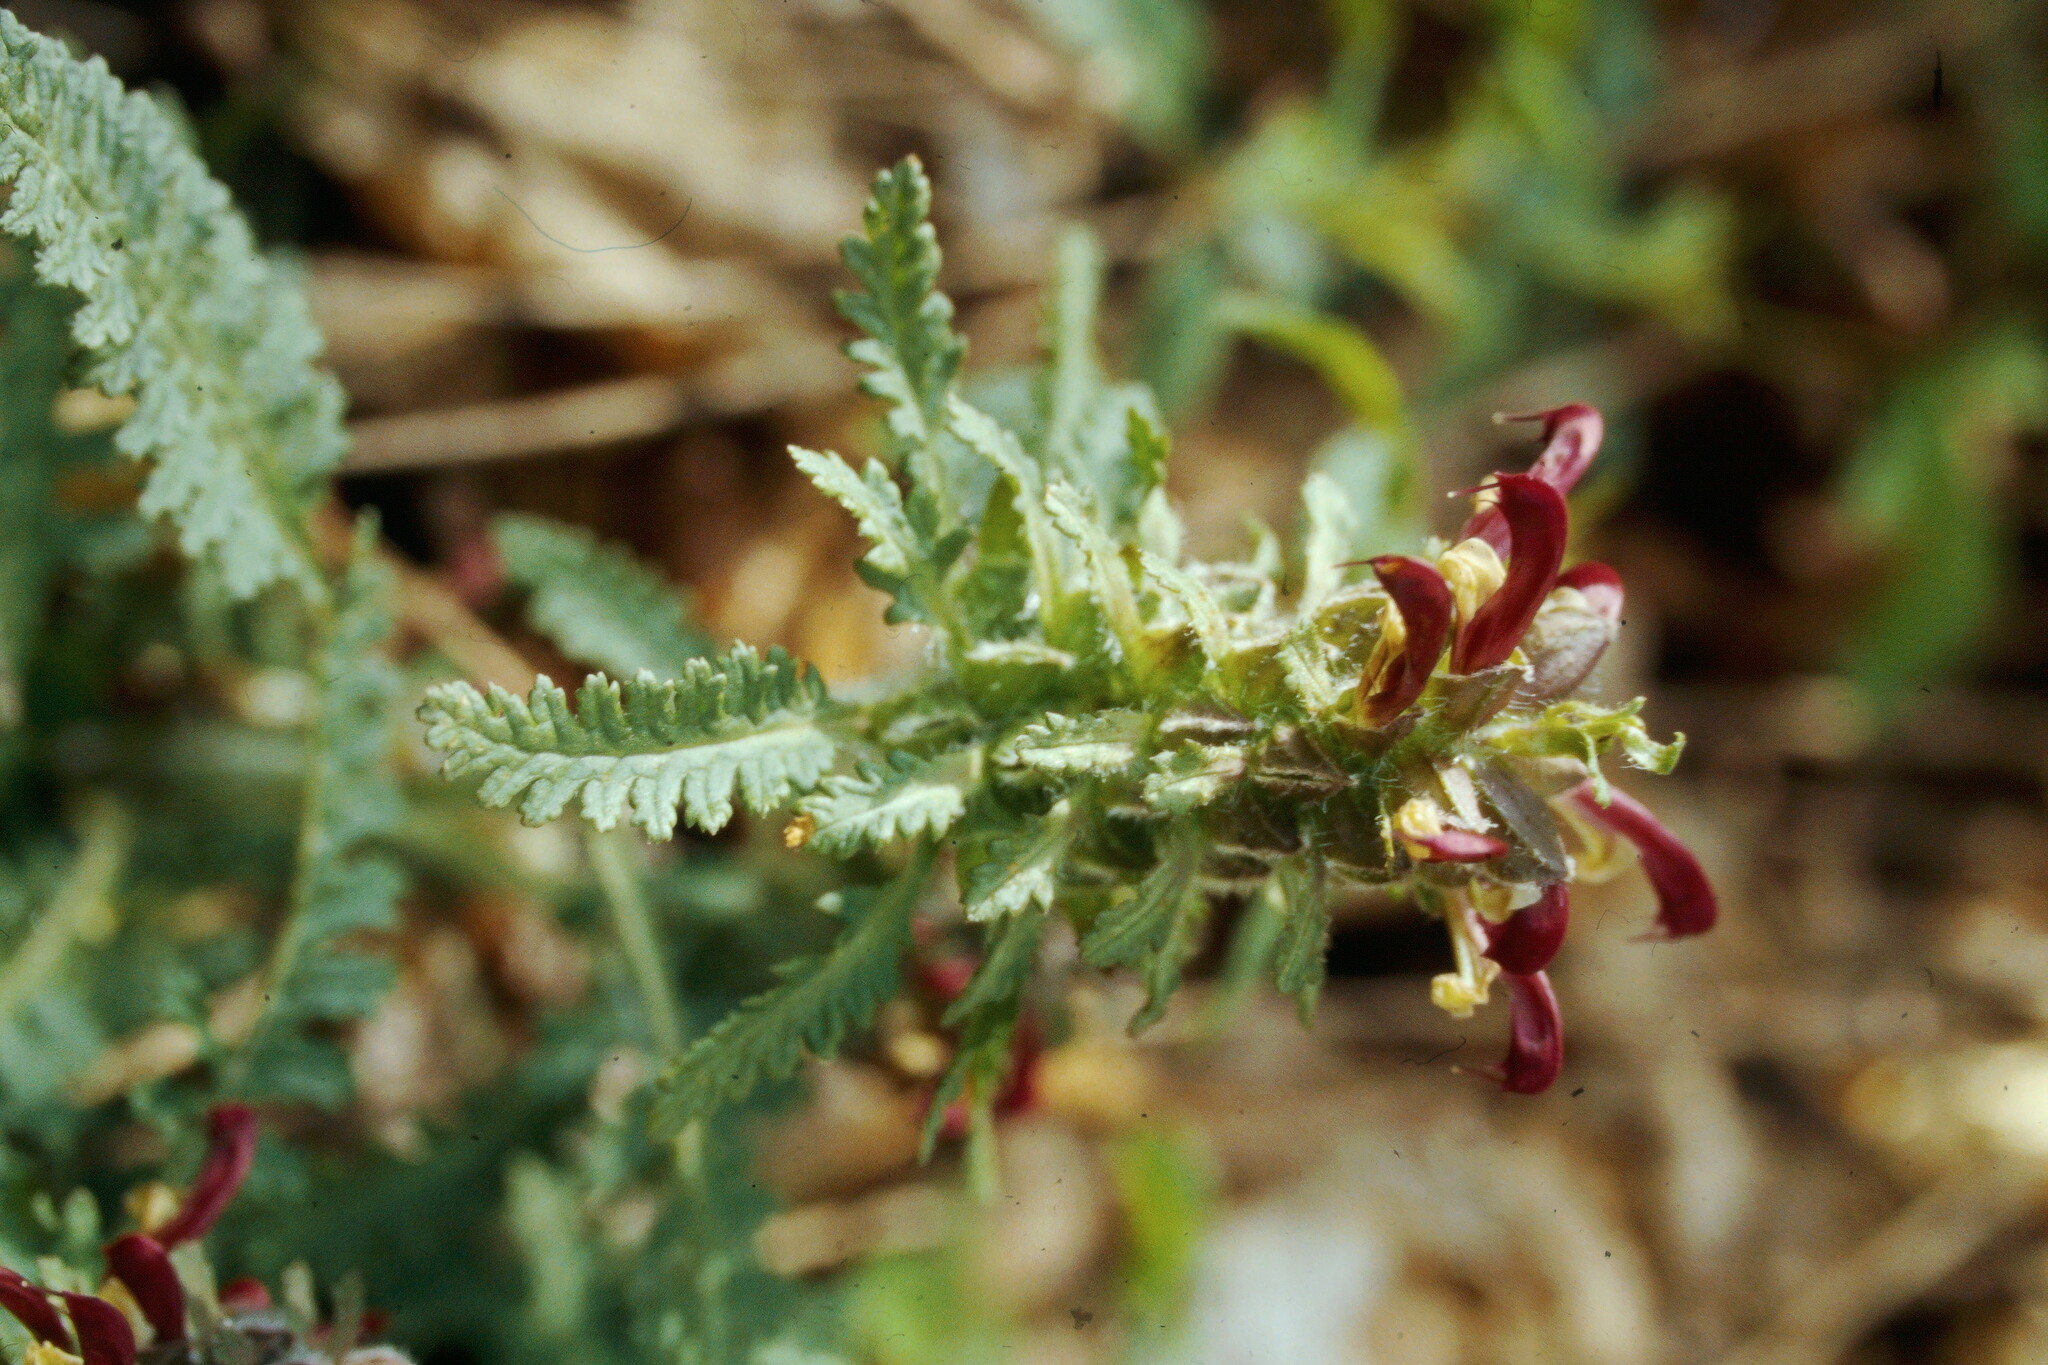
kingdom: Plantae
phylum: Tracheophyta
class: Magnoliopsida
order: Lamiales
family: Orobanchaceae
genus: Pedicularis
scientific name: Pedicularis canadensis
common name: Early lousewort
